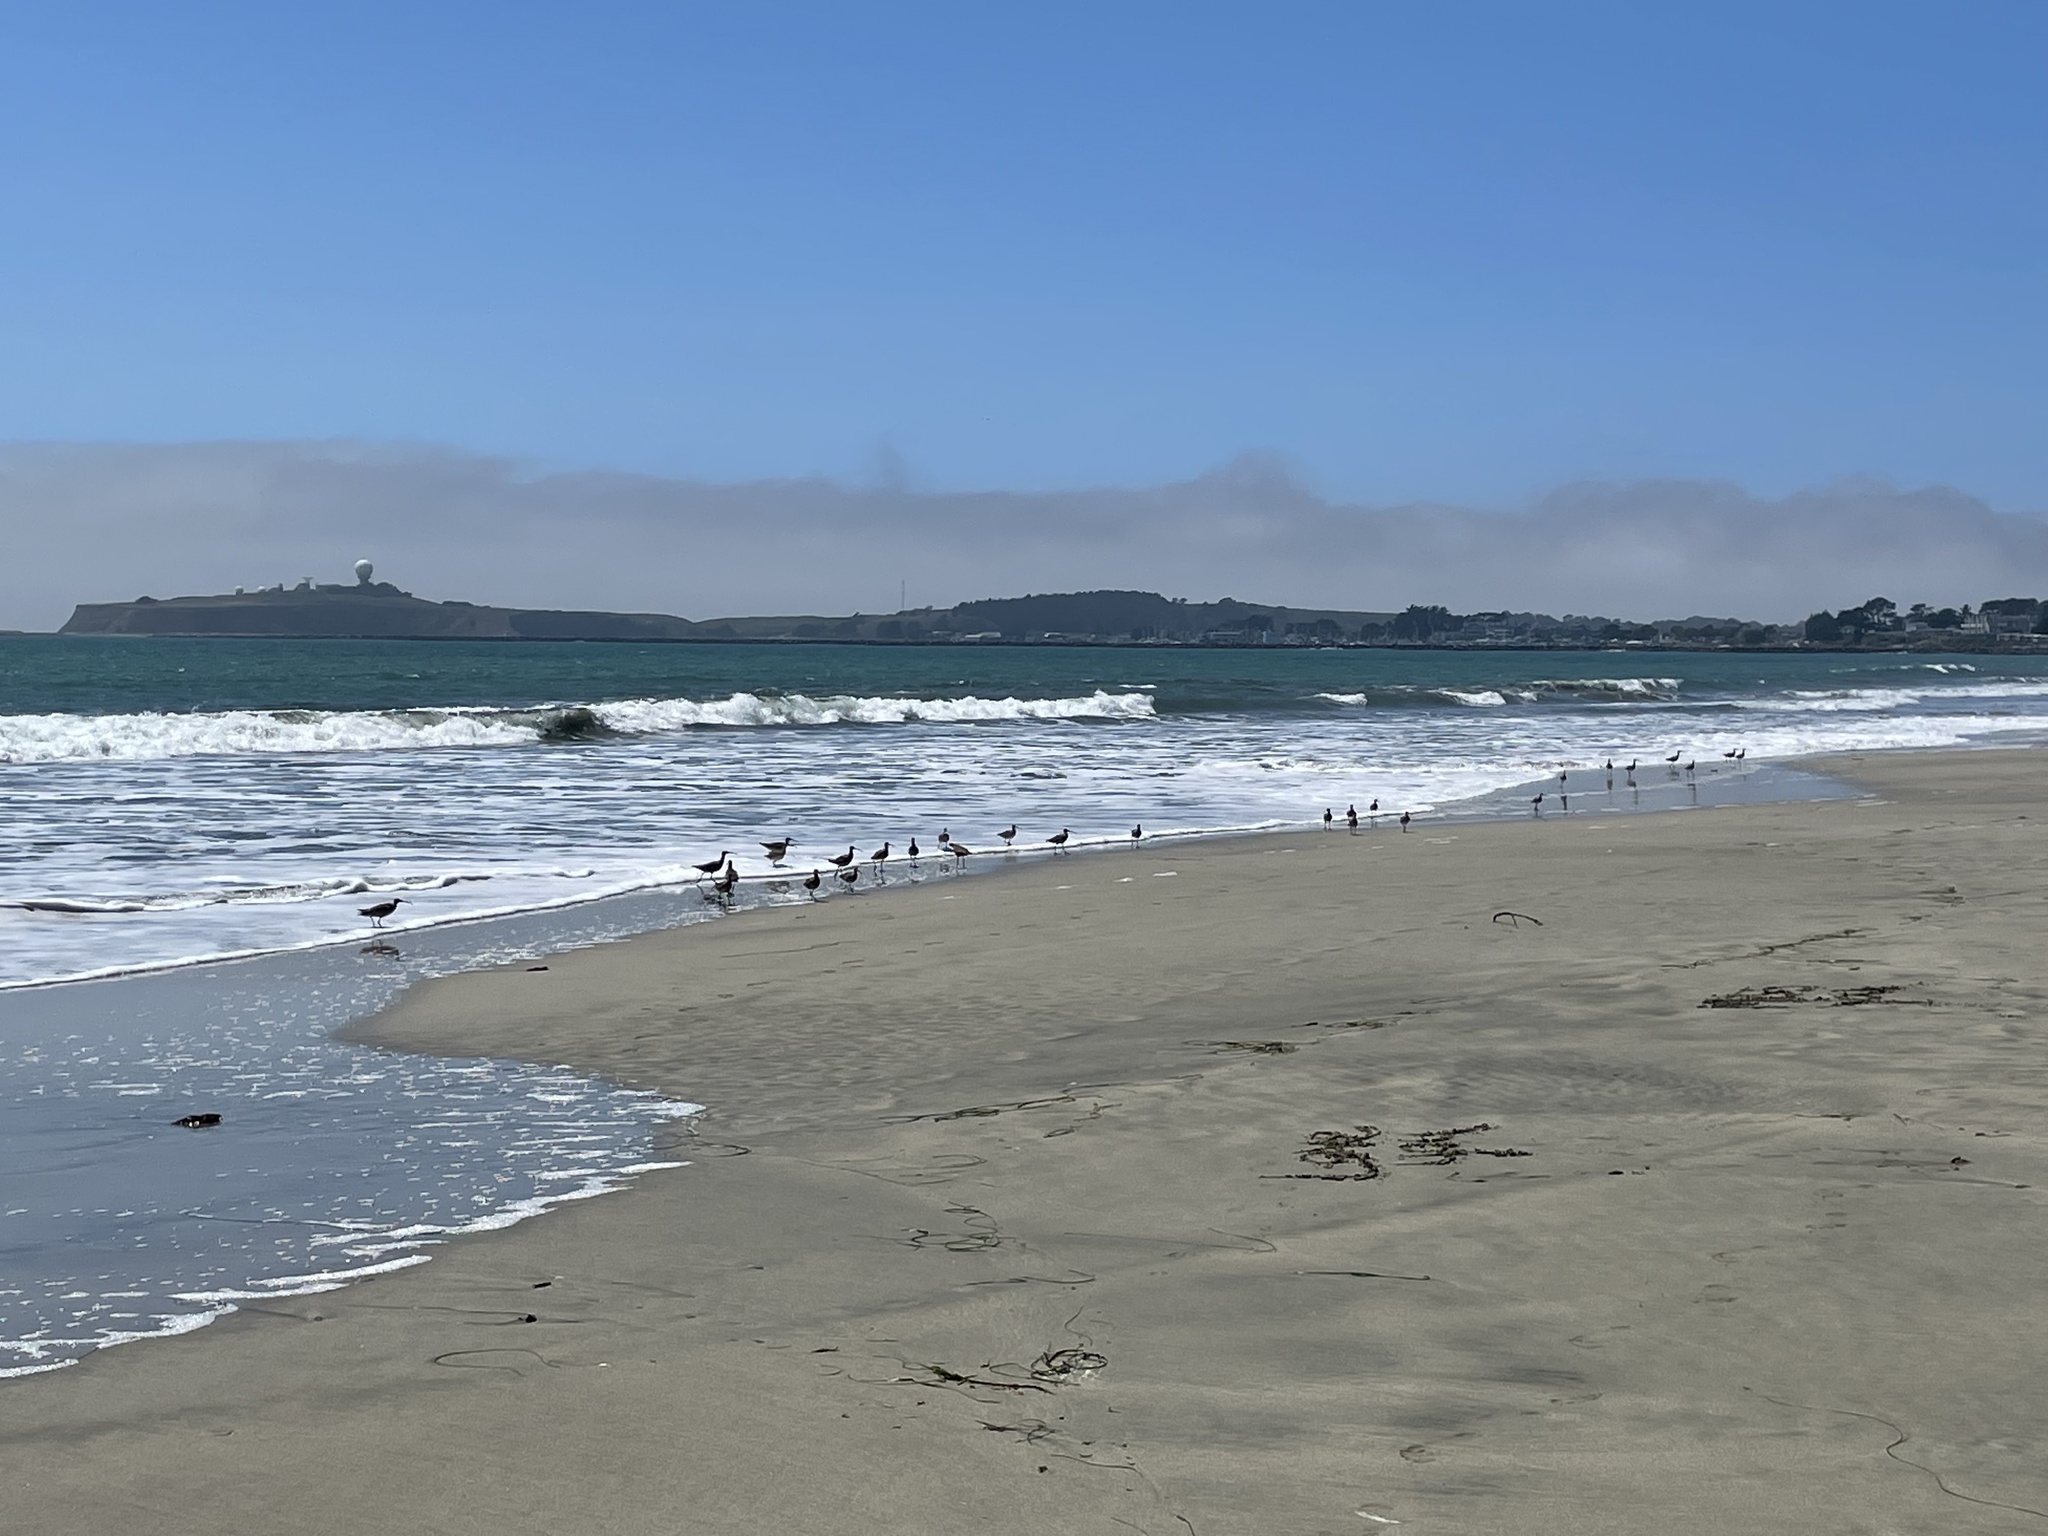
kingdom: Animalia
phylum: Chordata
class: Aves
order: Charadriiformes
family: Scolopacidae
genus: Numenius
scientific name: Numenius phaeopus
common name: Whimbrel
